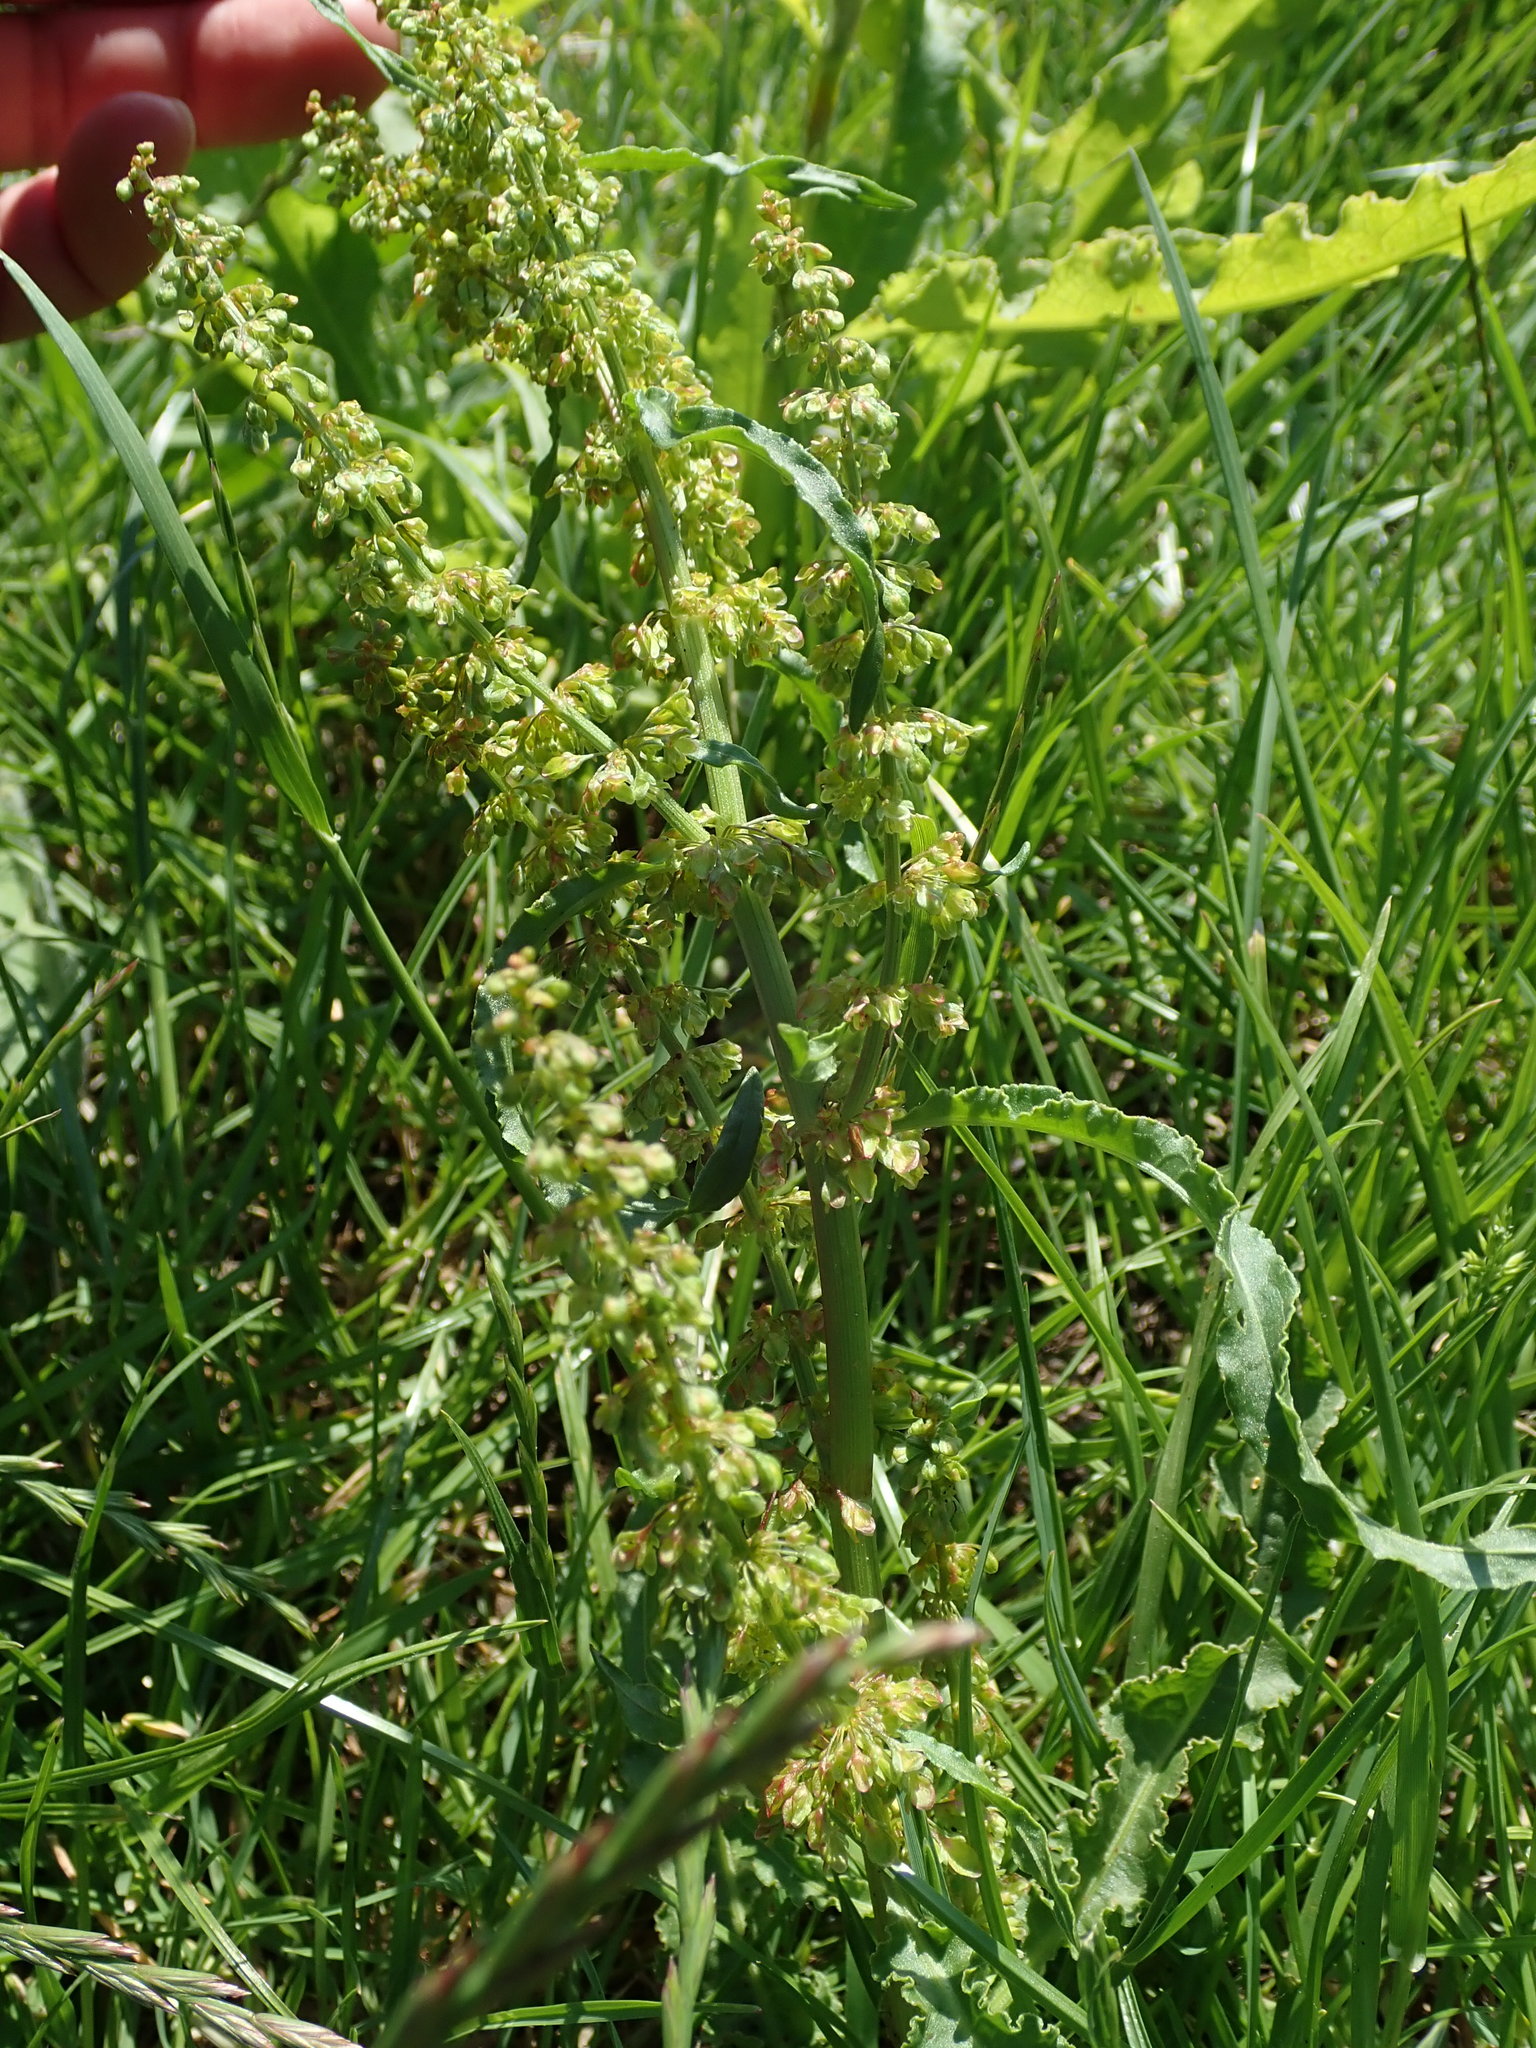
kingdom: Plantae
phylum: Tracheophyta
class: Magnoliopsida
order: Caryophyllales
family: Polygonaceae
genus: Rumex
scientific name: Rumex crispus
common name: Curled dock
